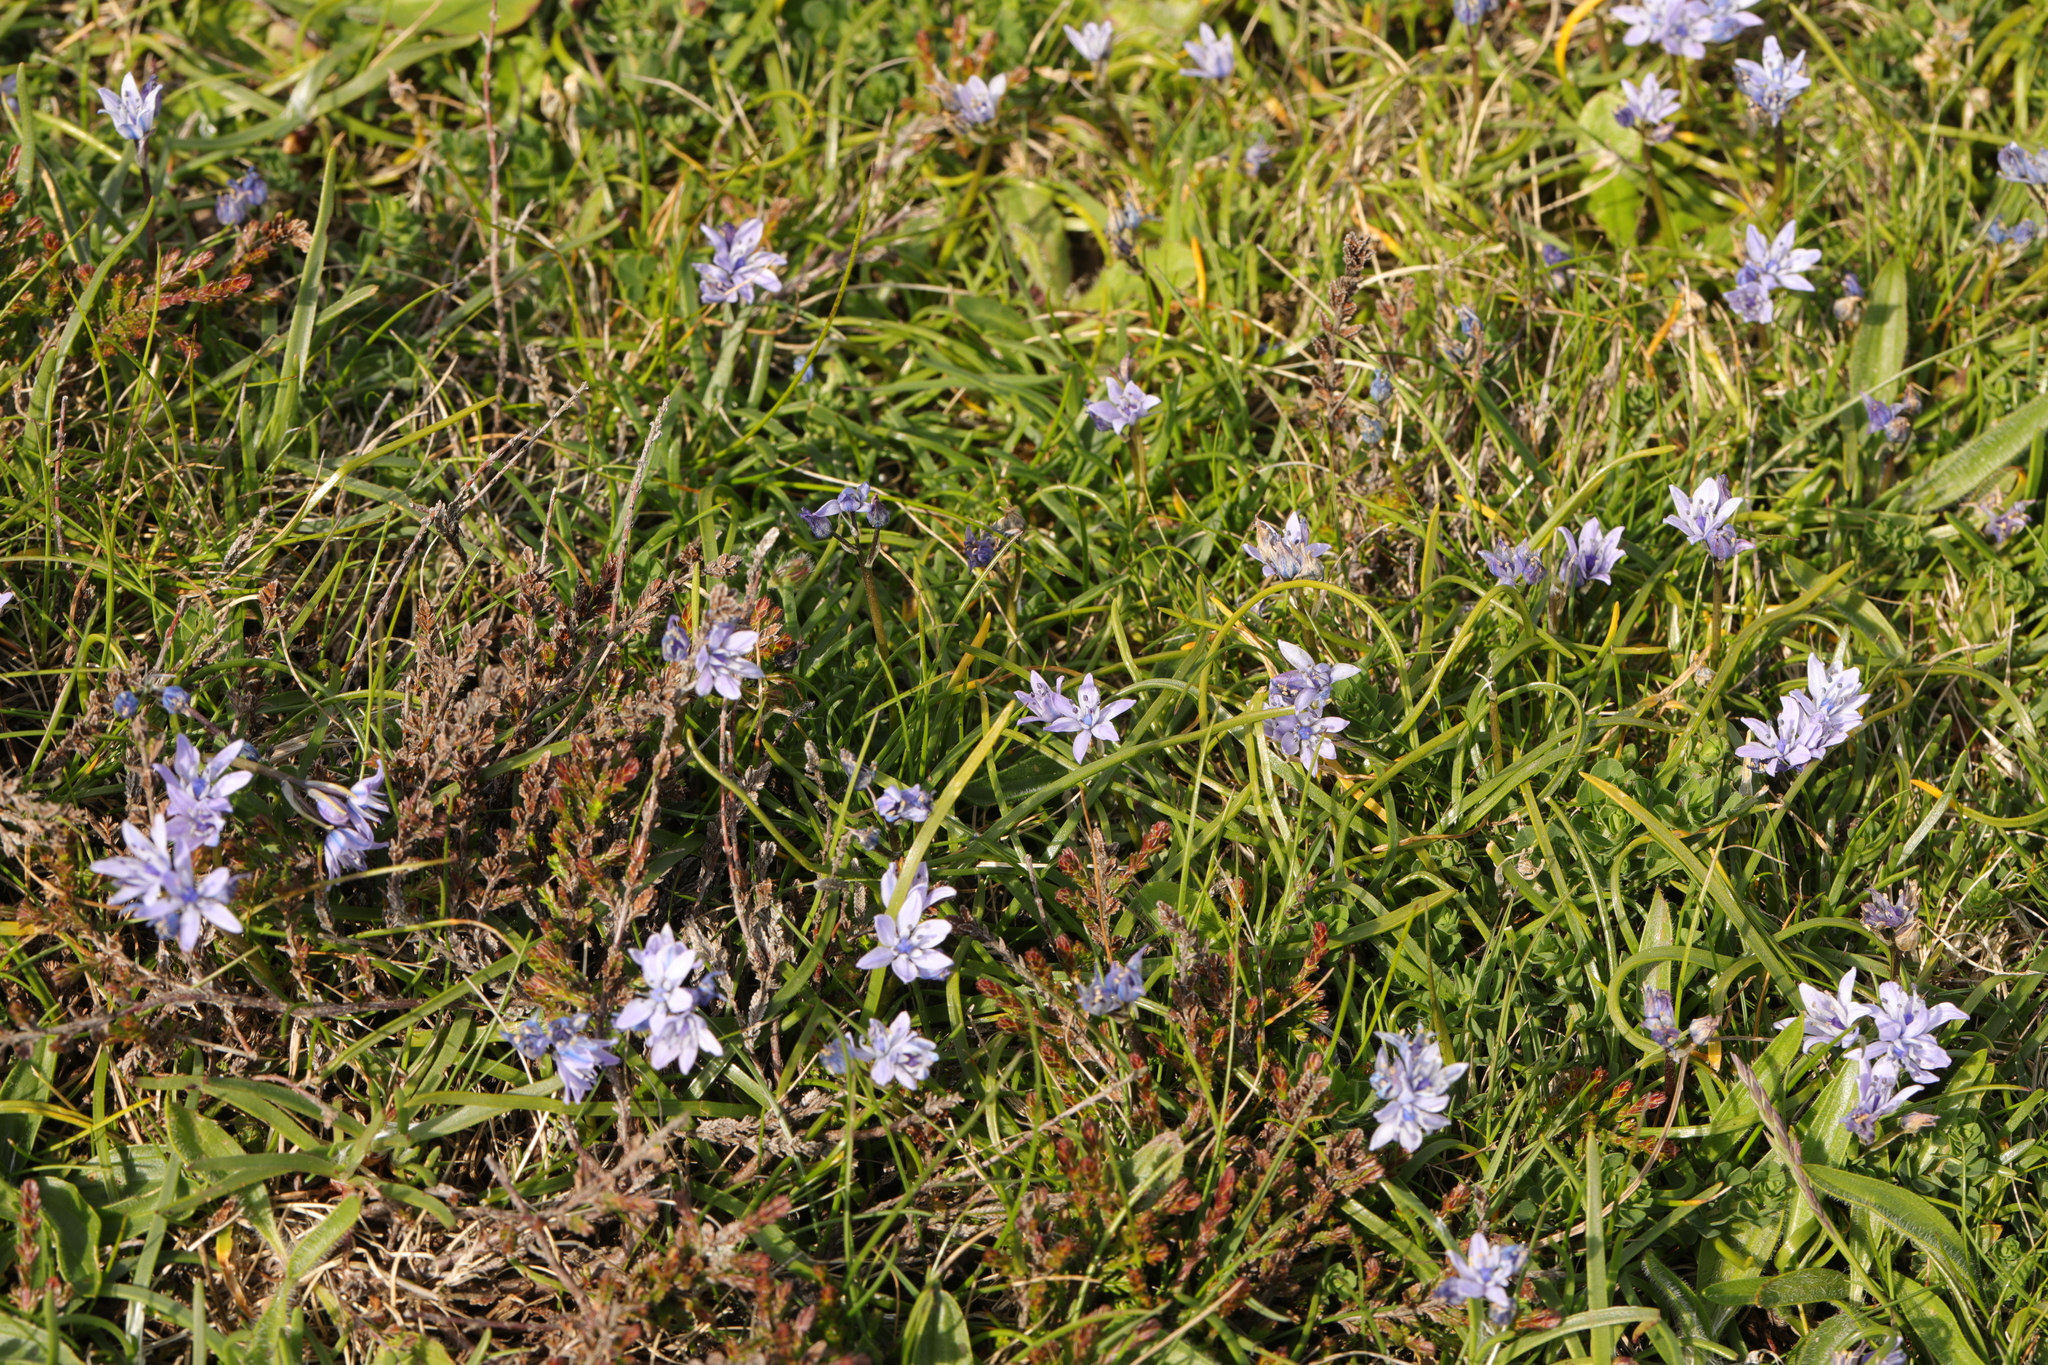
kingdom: Plantae
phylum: Tracheophyta
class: Liliopsida
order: Asparagales
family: Asparagaceae
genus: Scilla
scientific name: Scilla verna
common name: Spring squill
